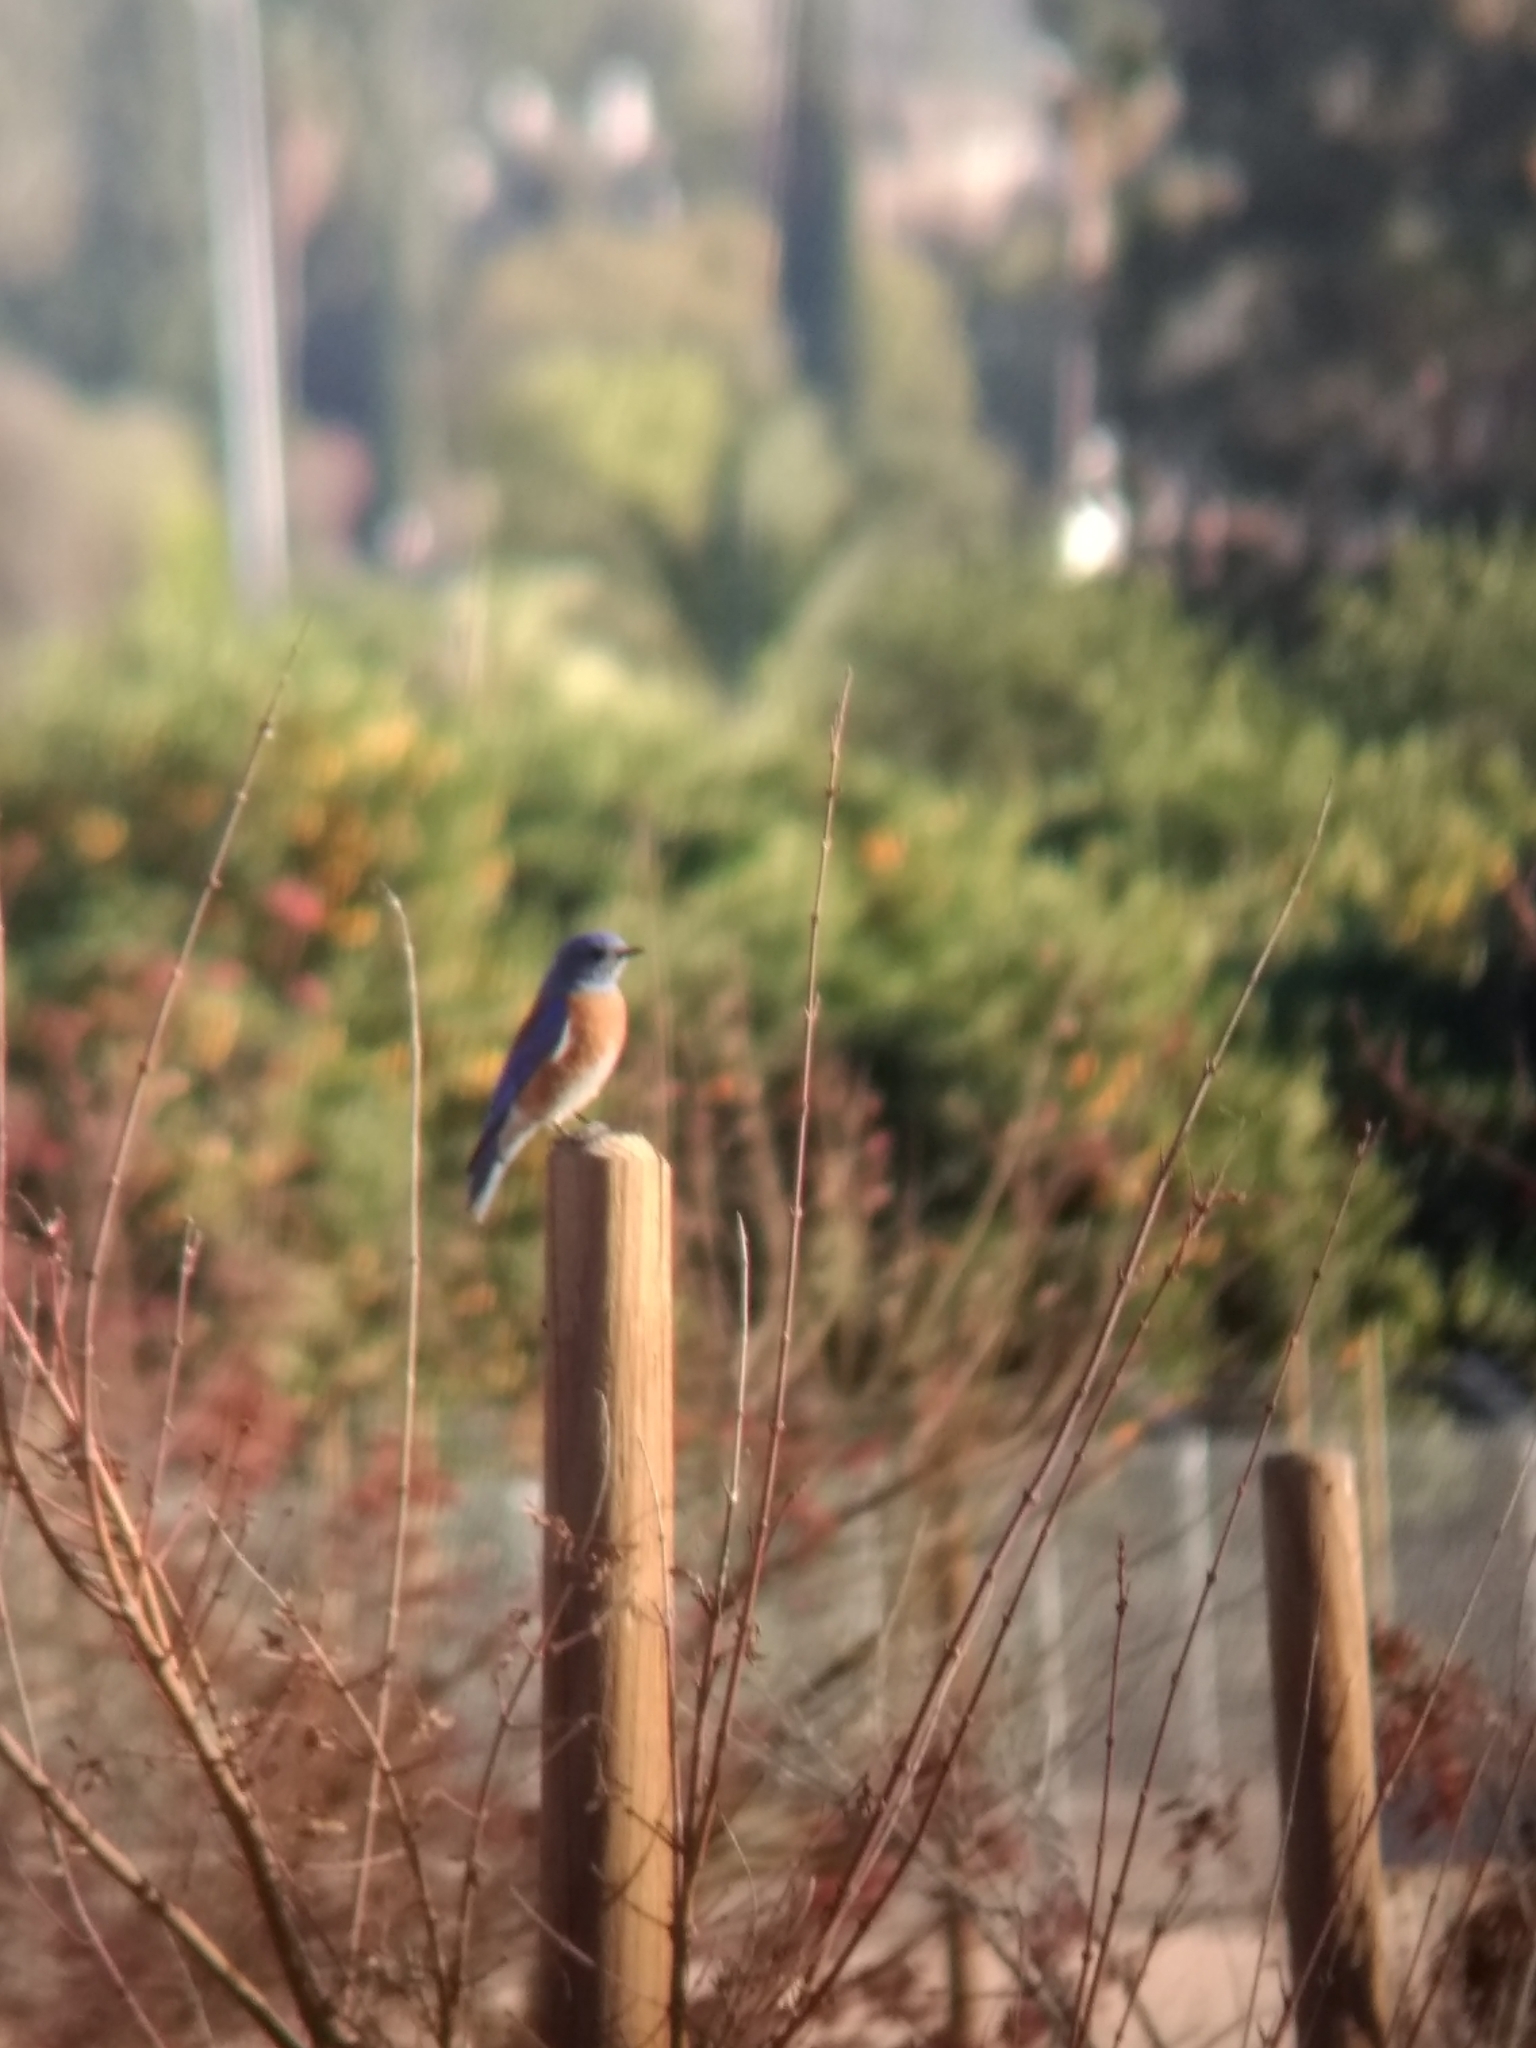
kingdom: Animalia
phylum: Chordata
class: Aves
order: Passeriformes
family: Turdidae
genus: Sialia
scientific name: Sialia mexicana
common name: Western bluebird
